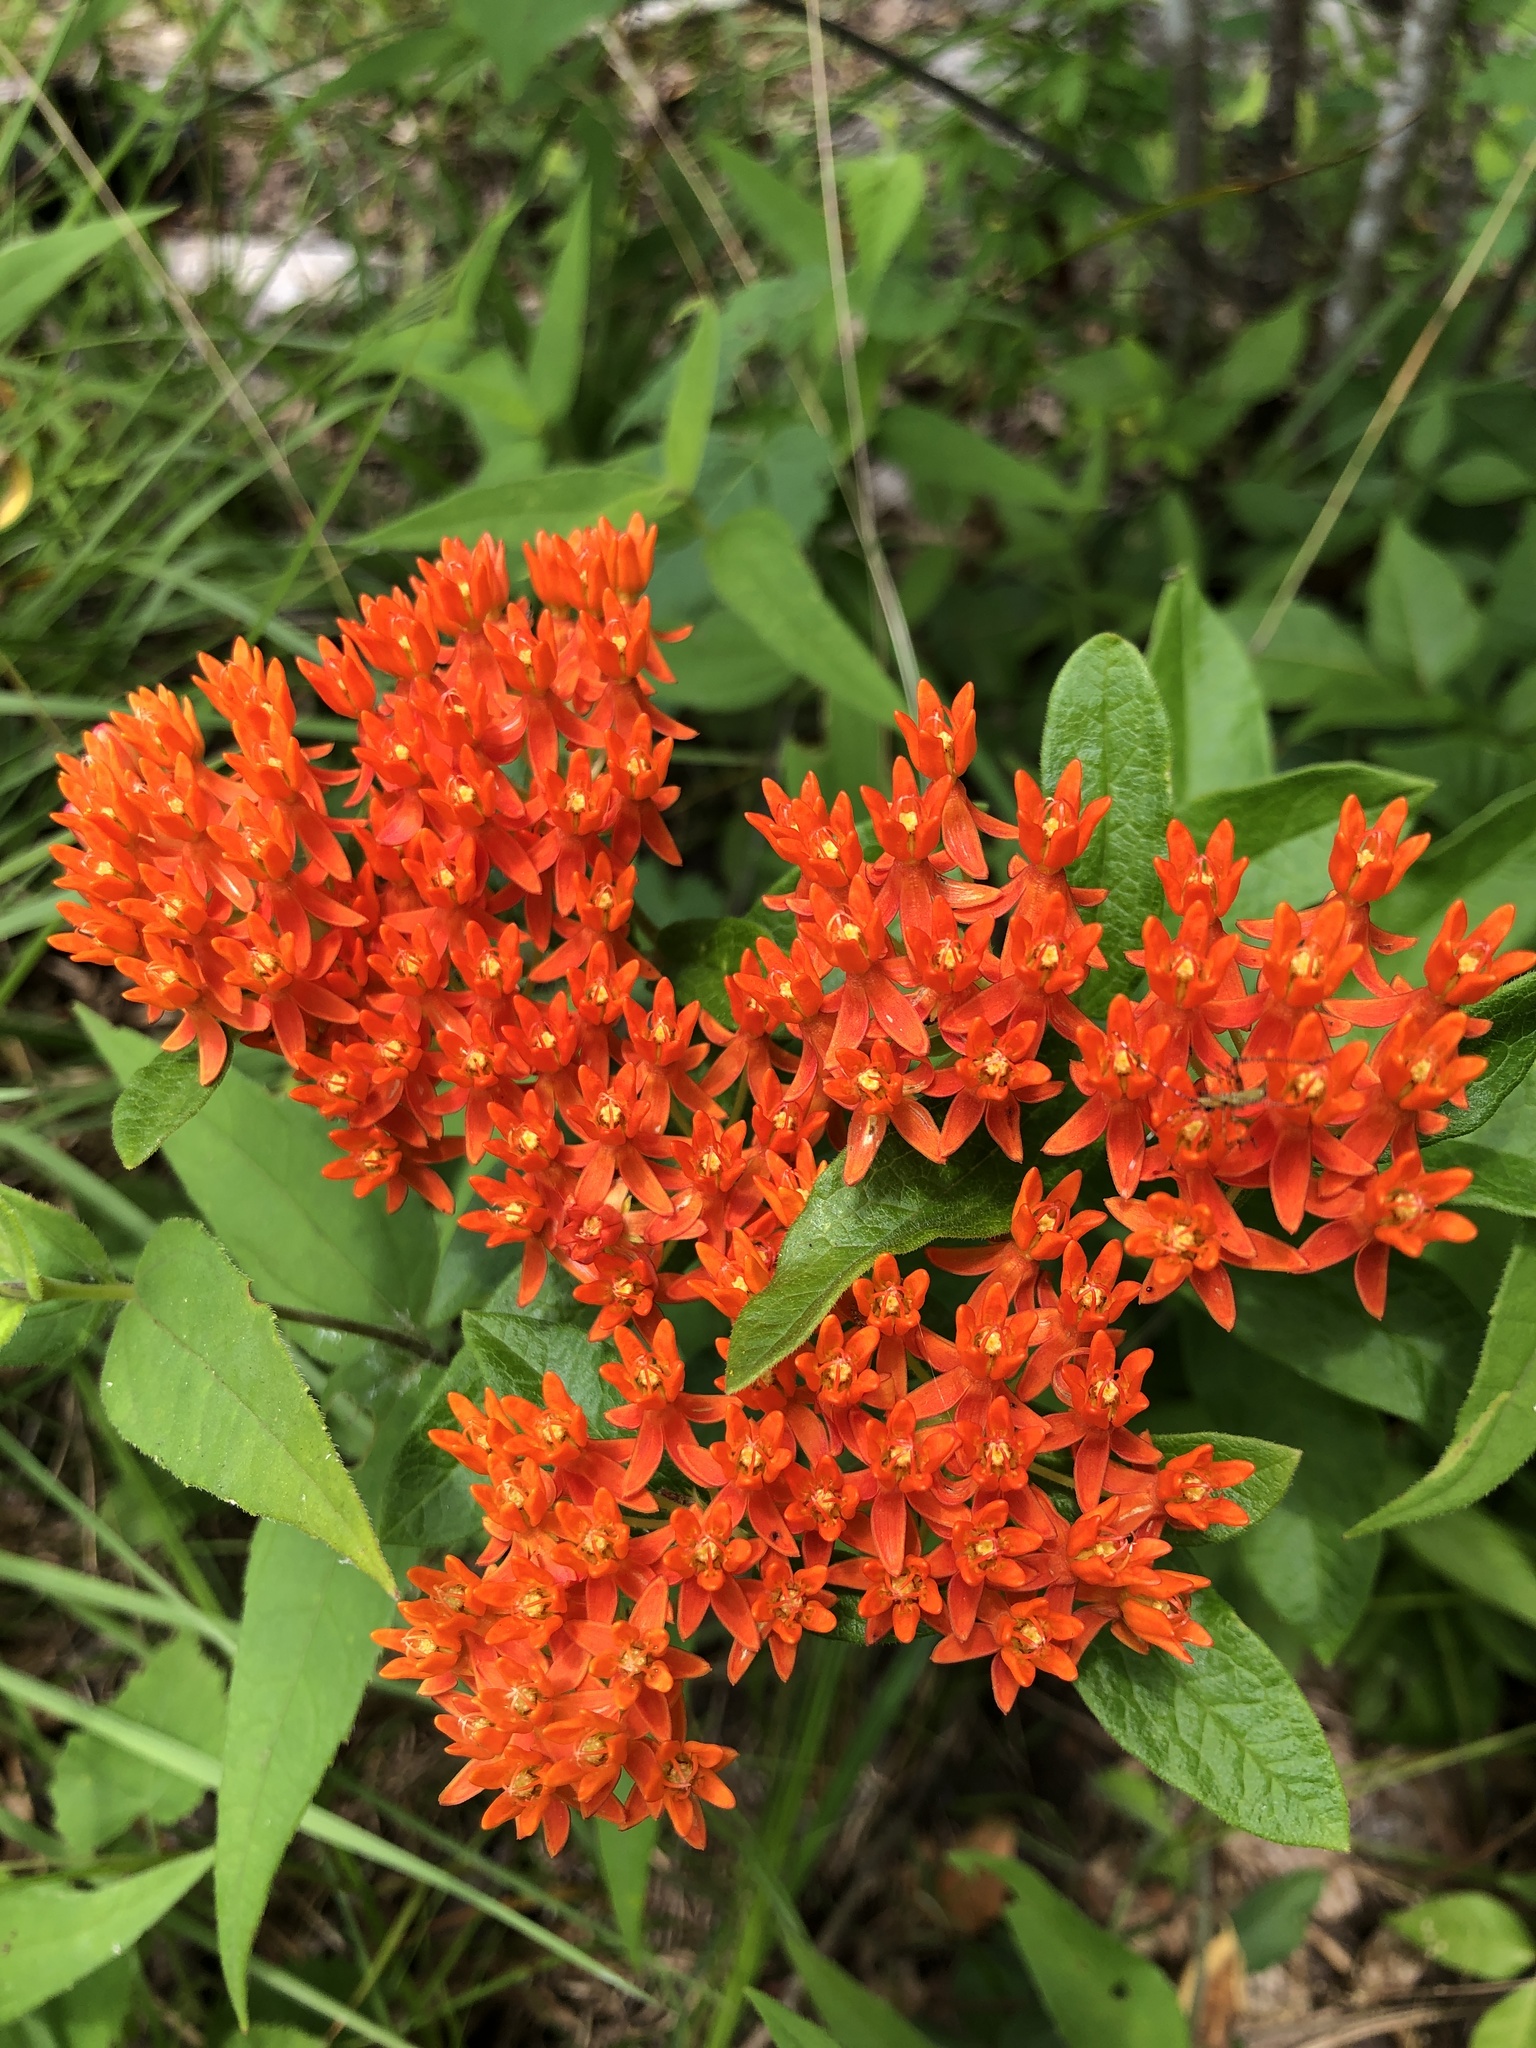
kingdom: Plantae
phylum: Tracheophyta
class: Magnoliopsida
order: Gentianales
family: Apocynaceae
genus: Asclepias
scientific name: Asclepias tuberosa
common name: Butterfly milkweed
